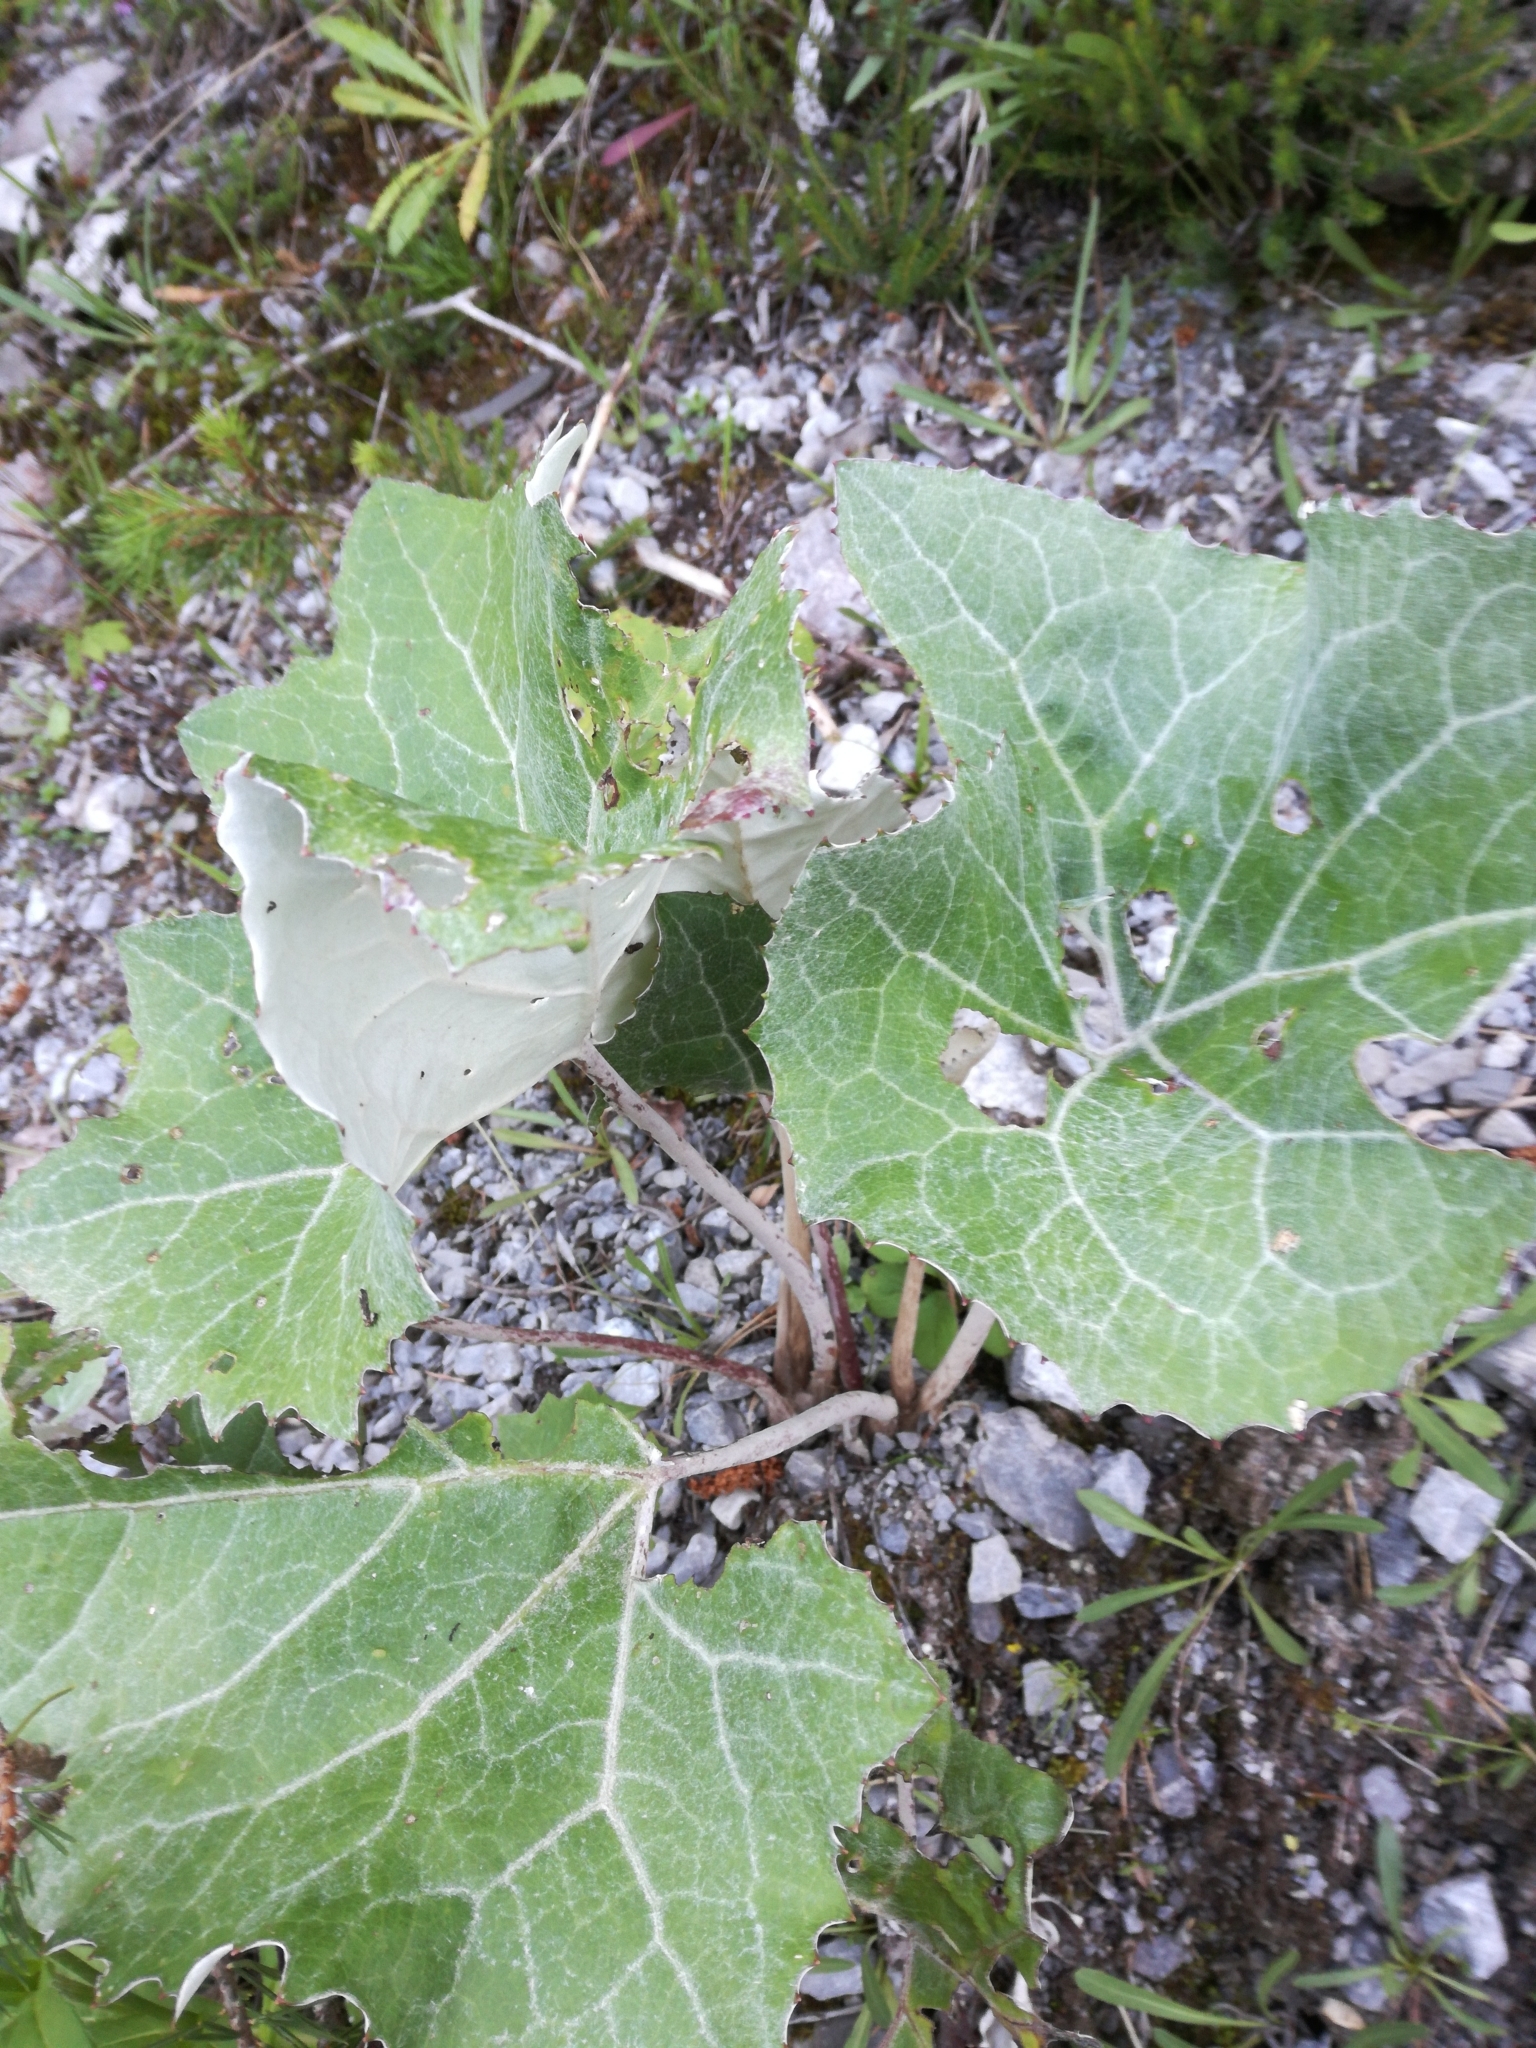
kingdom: Plantae
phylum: Tracheophyta
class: Magnoliopsida
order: Asterales
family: Asteraceae
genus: Petasites
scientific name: Petasites paradoxus
